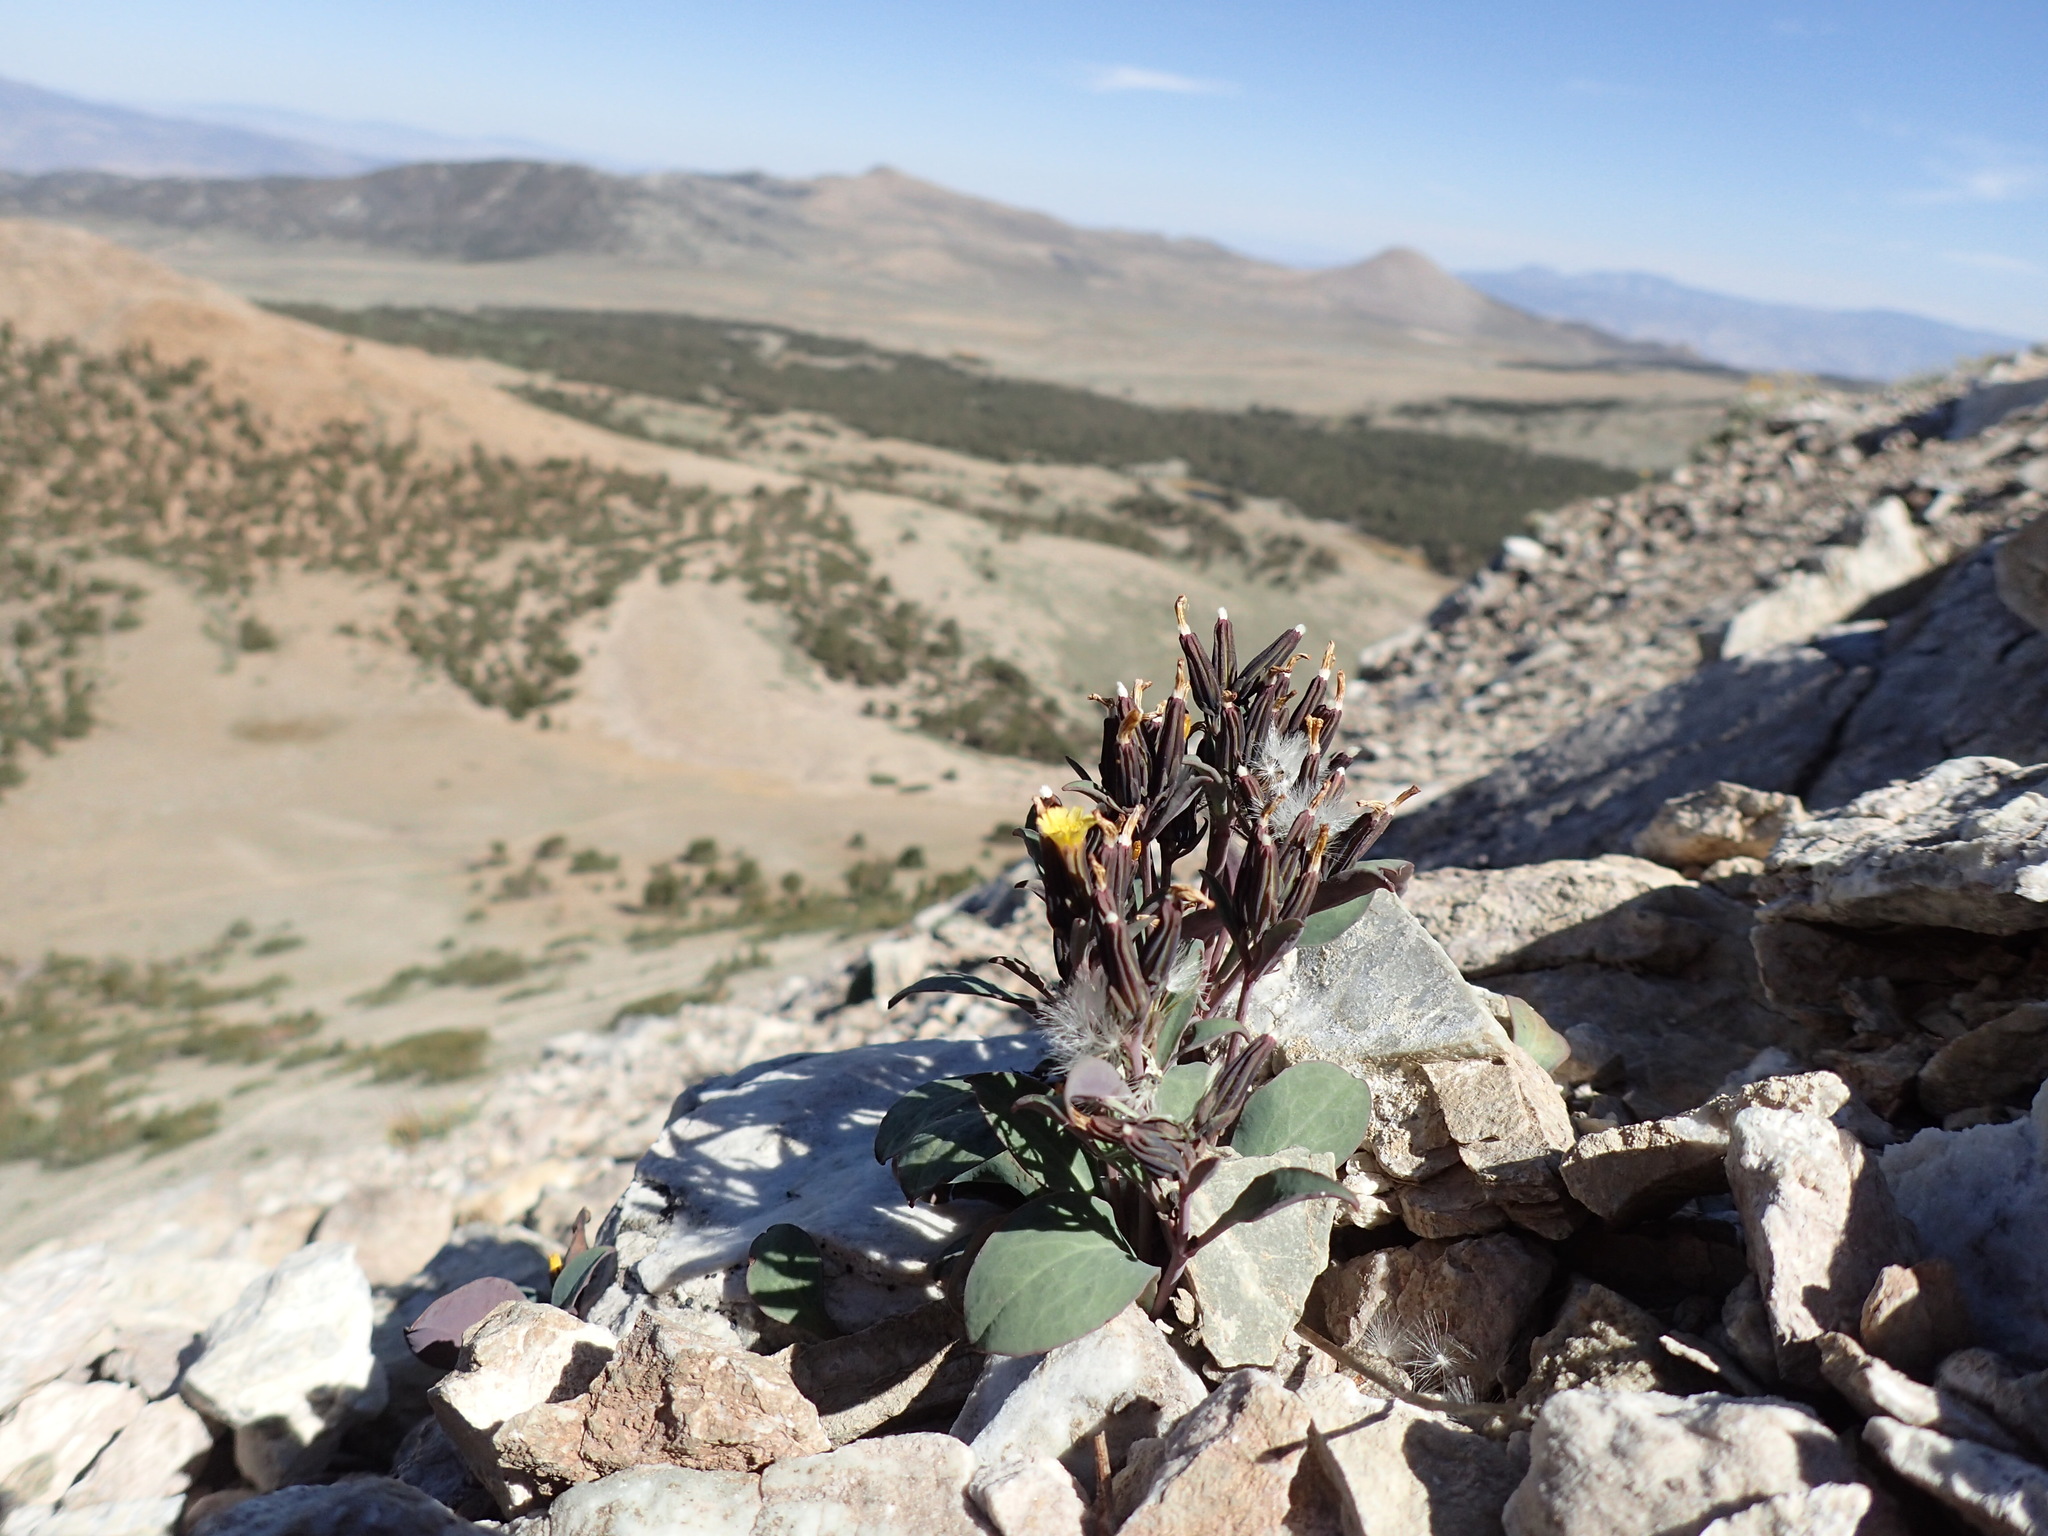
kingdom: Plantae
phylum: Tracheophyta
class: Magnoliopsida
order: Asterales
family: Asteraceae
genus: Askellia
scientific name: Askellia pygmaea
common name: Dwarf alpine hawksbeard
